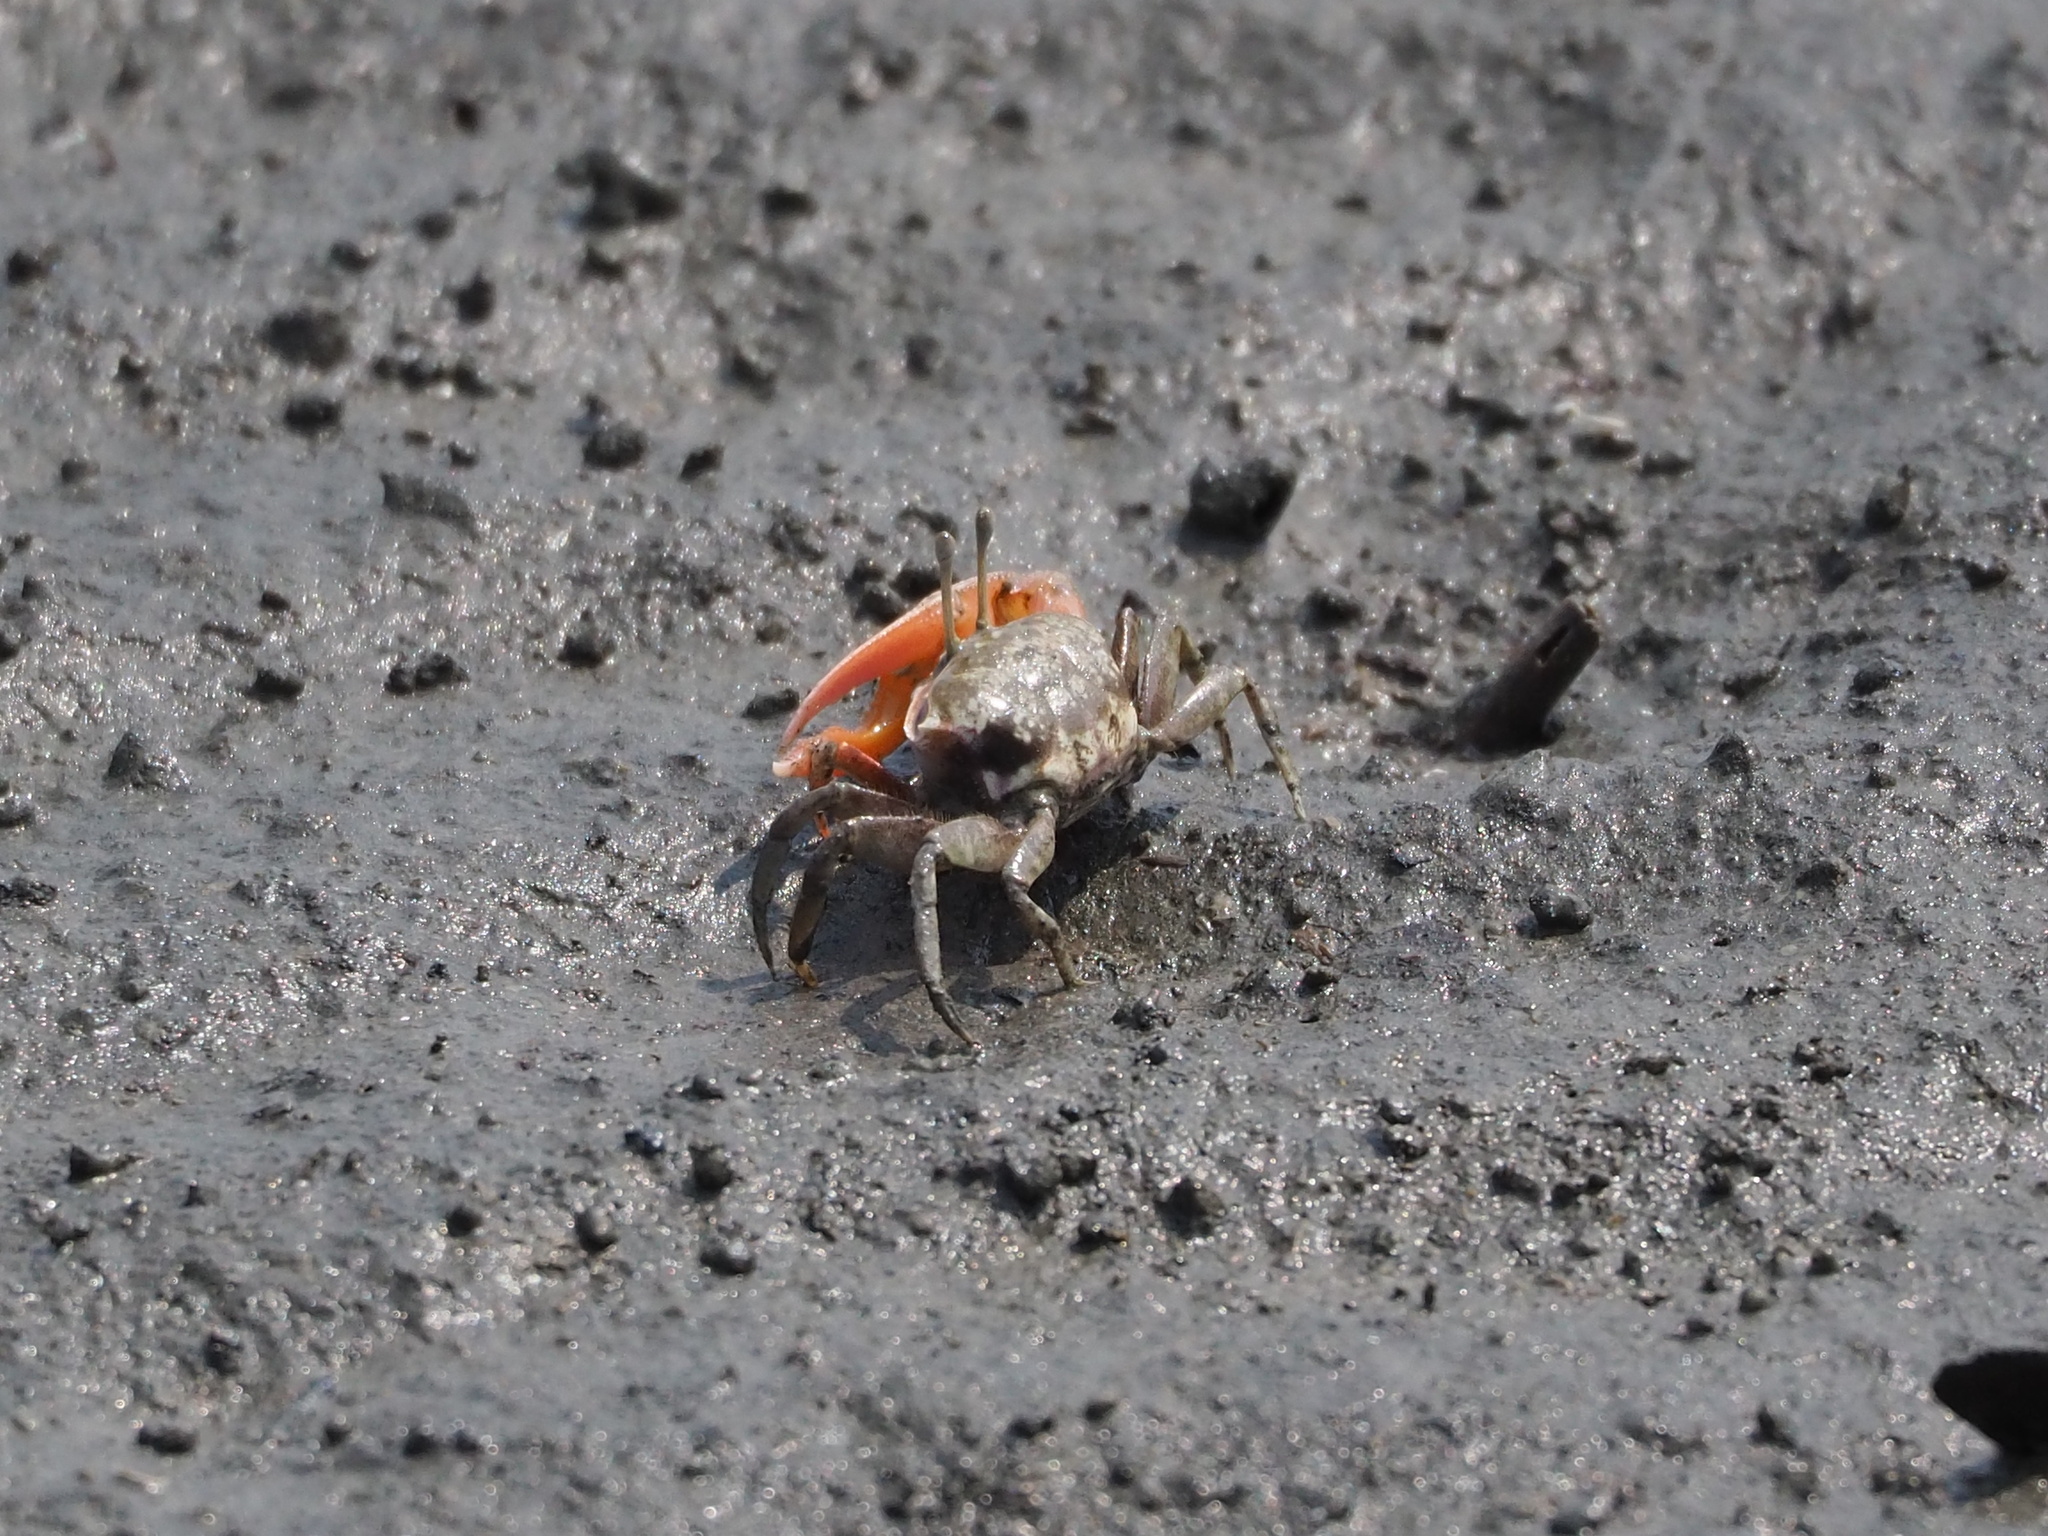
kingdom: Animalia
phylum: Arthropoda
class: Malacostraca
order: Decapoda
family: Ocypodidae
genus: Gelasimus
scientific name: Gelasimus borealis
